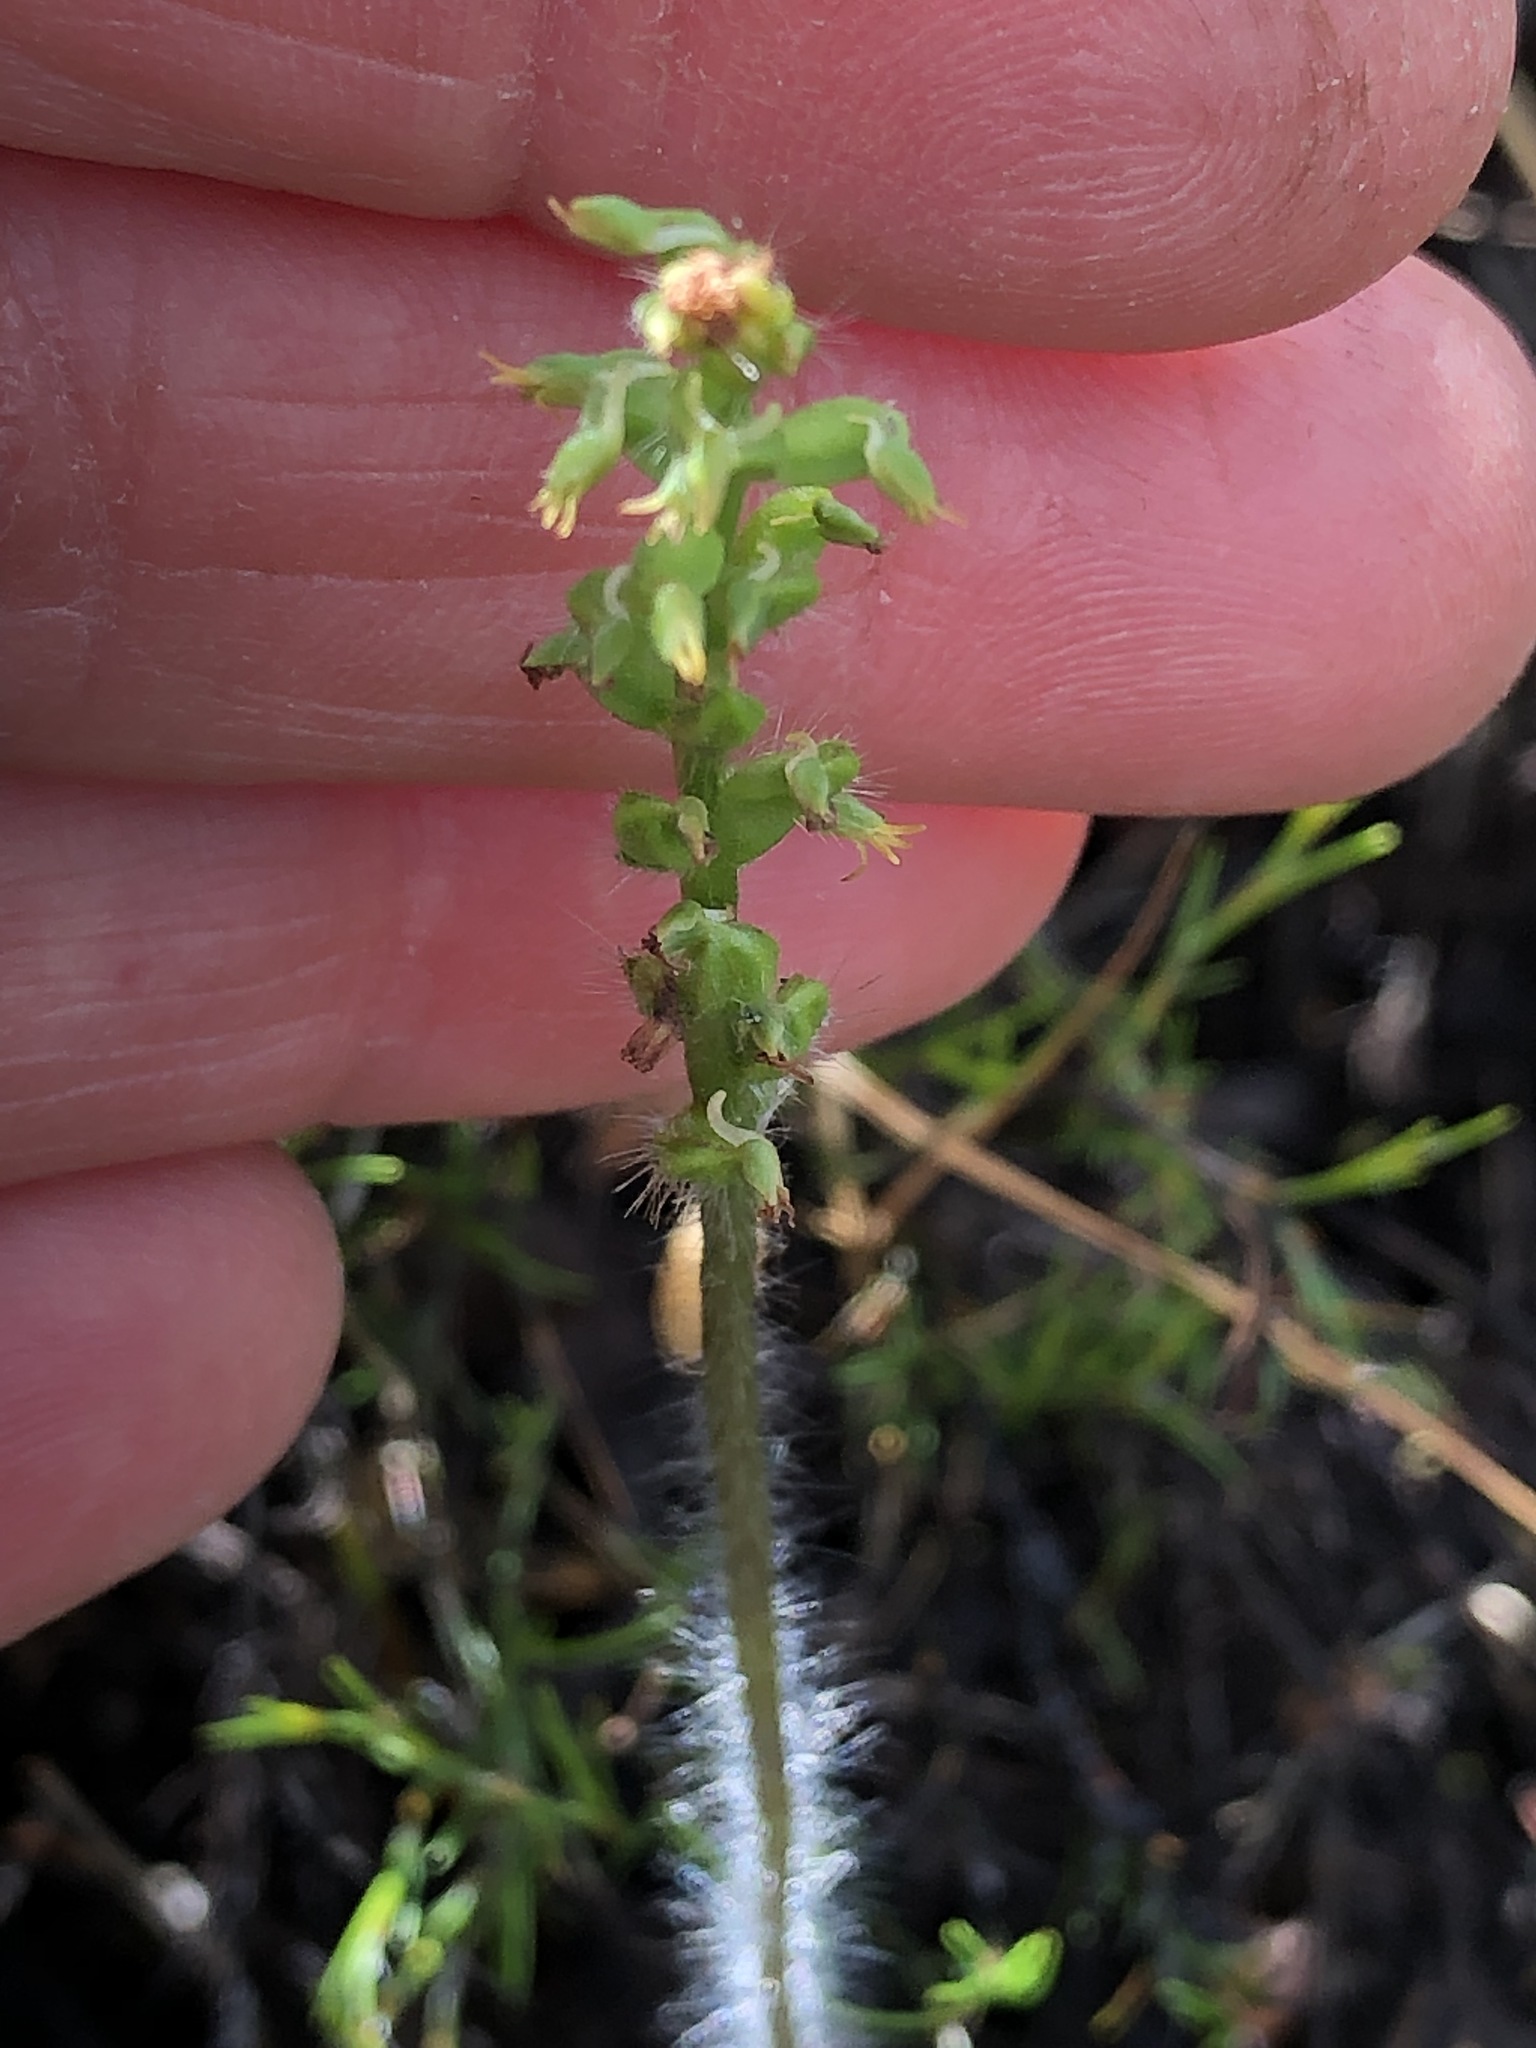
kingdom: Plantae
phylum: Tracheophyta
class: Liliopsida
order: Asparagales
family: Orchidaceae
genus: Holothrix
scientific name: Holothrix villosa
